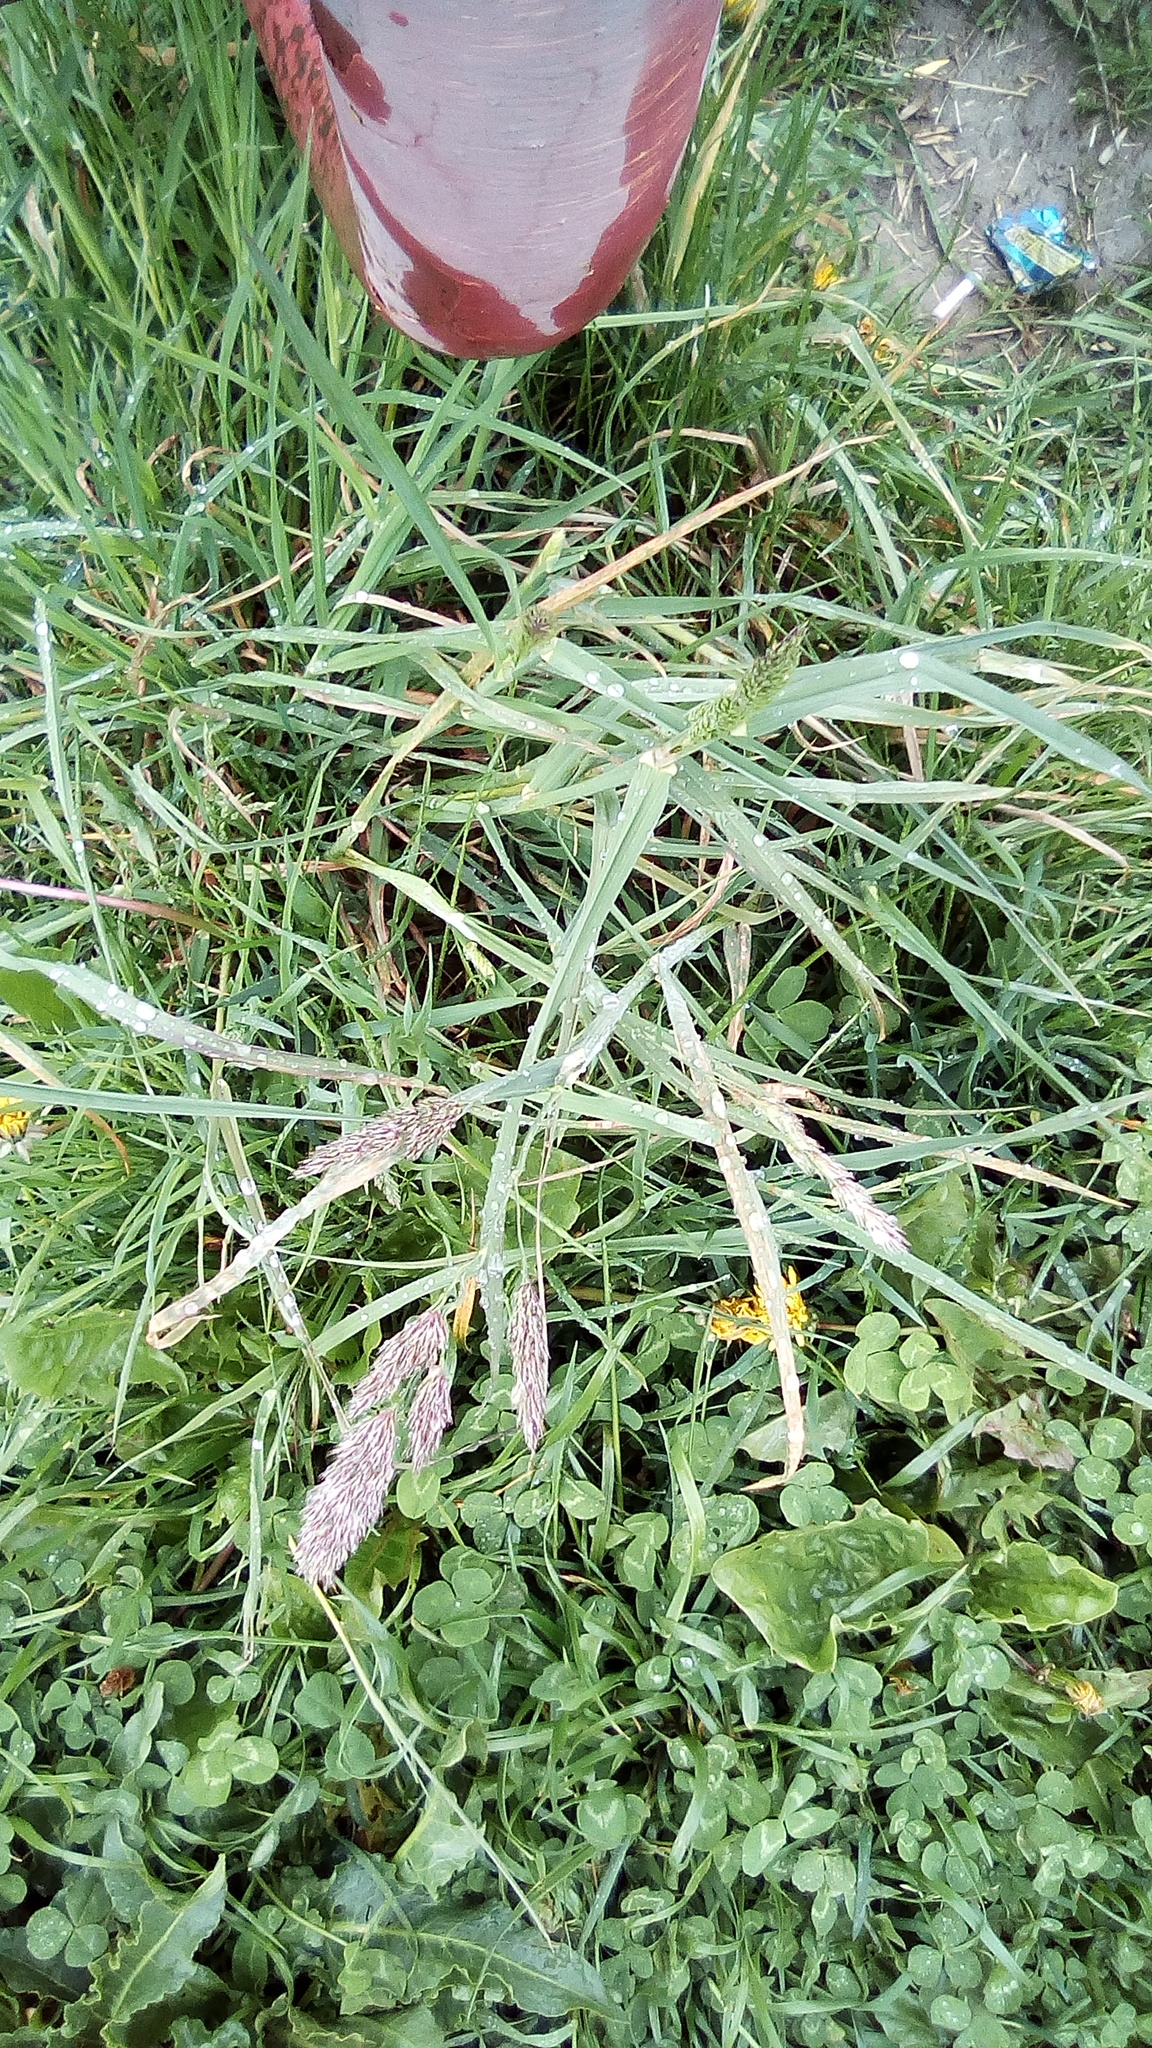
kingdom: Plantae
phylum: Tracheophyta
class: Liliopsida
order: Poales
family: Poaceae
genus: Dactylis
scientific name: Dactylis glomerata
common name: Orchardgrass
